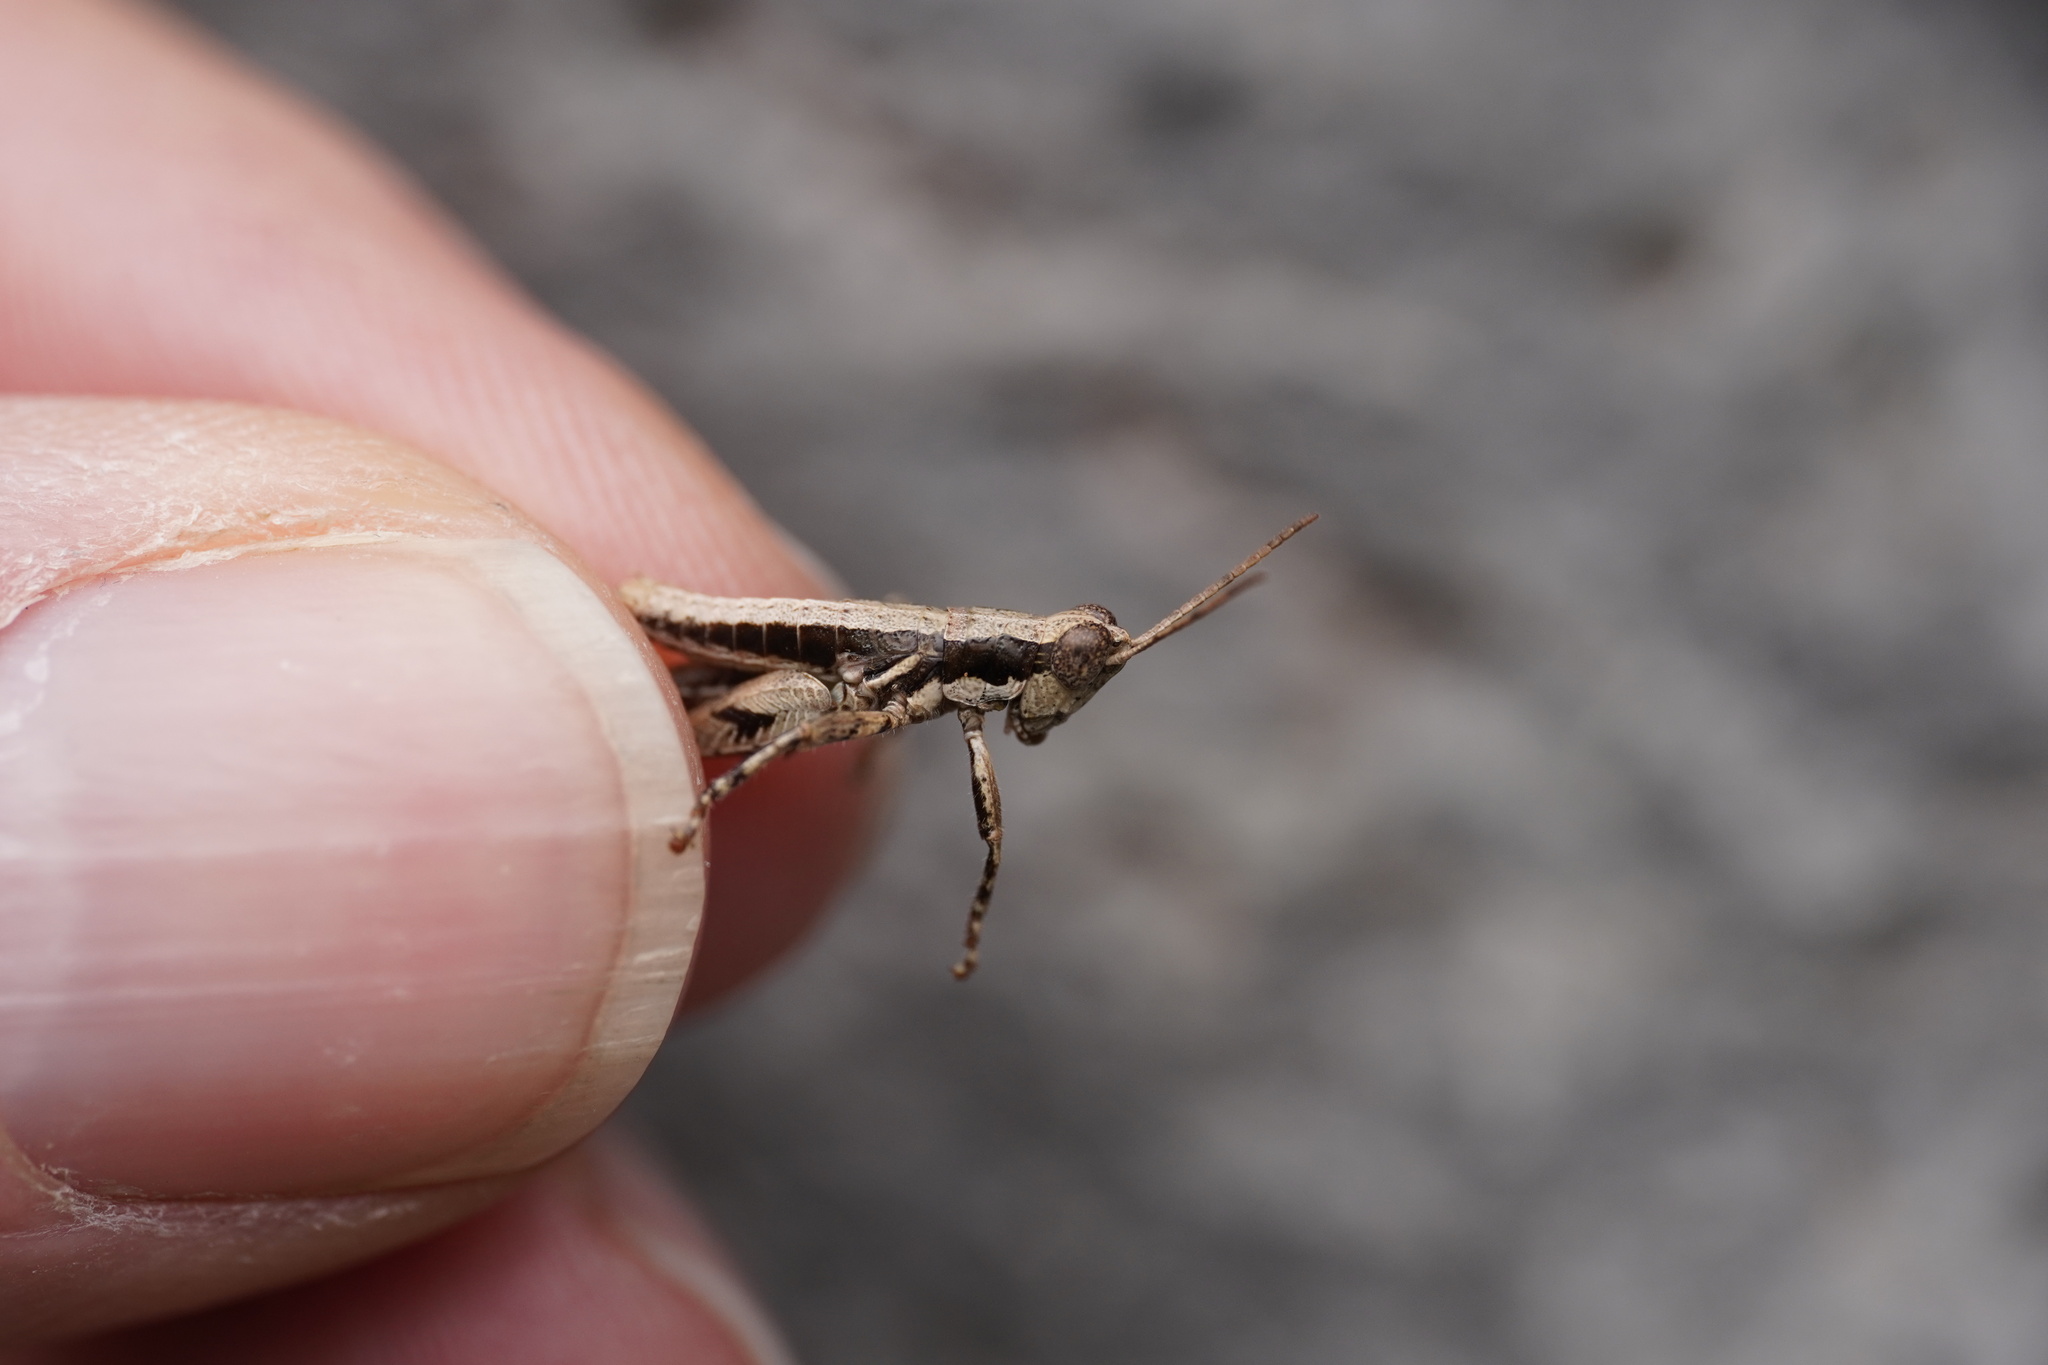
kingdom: Animalia
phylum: Arthropoda
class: Insecta
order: Orthoptera
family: Acrididae
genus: Arminda
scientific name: Arminda latifrons
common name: Gomera rock grasshopper
